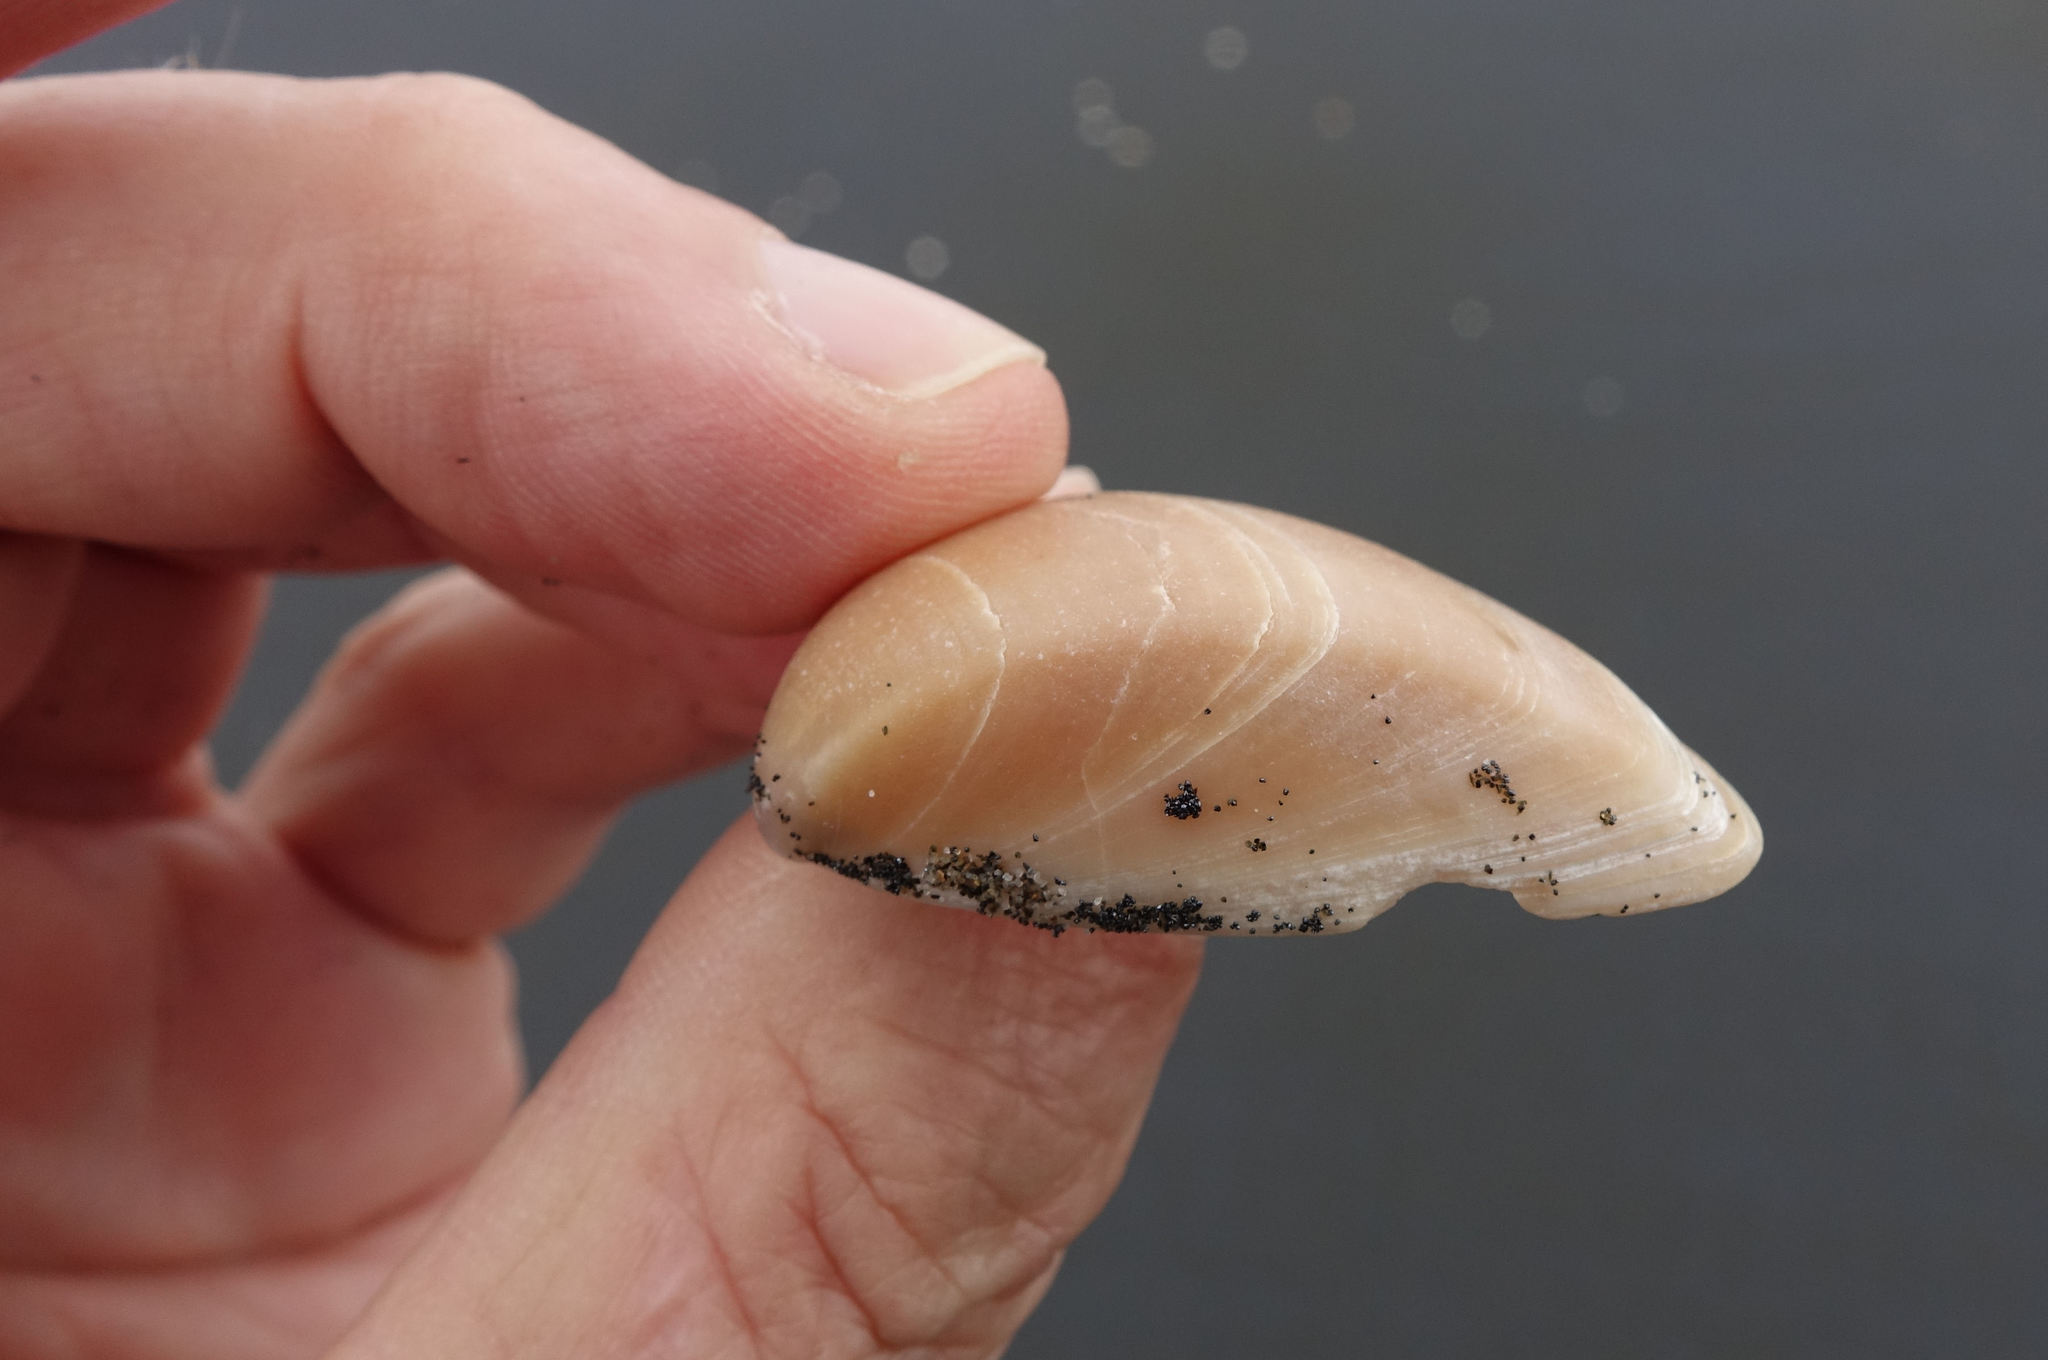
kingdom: Animalia
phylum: Mollusca
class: Bivalvia
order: Venerida
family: Mactridae
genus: Crassula
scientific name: Crassula aequilatera
